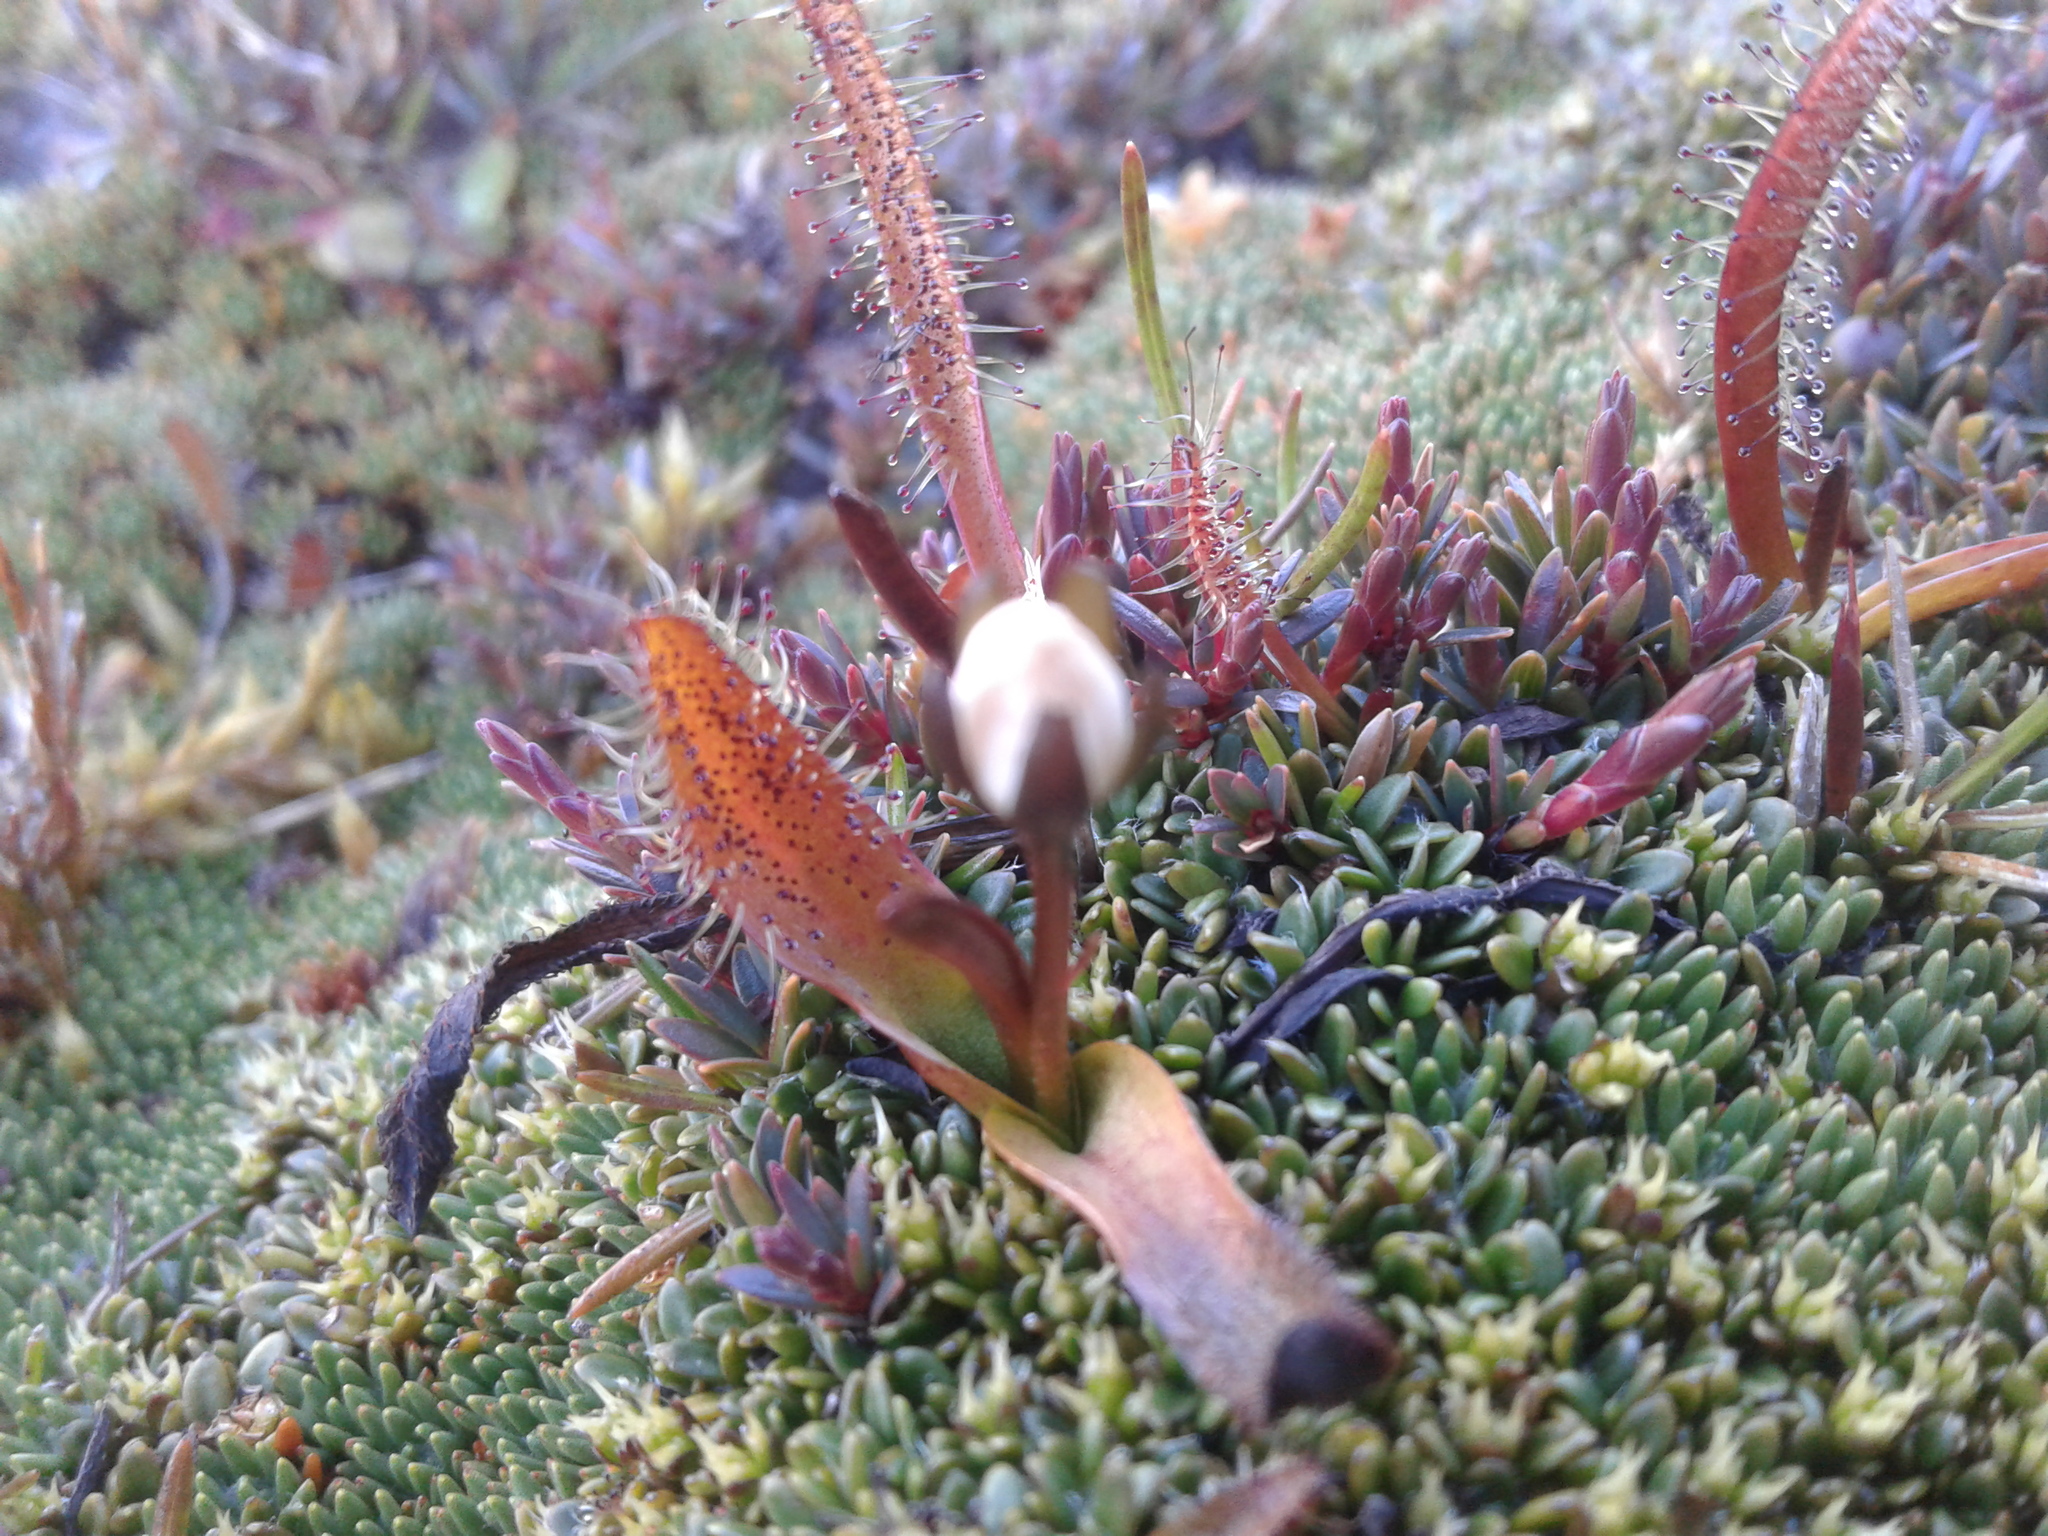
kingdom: Plantae
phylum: Tracheophyta
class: Magnoliopsida
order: Caryophyllales
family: Droseraceae
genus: Drosera
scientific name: Drosera arcturi
